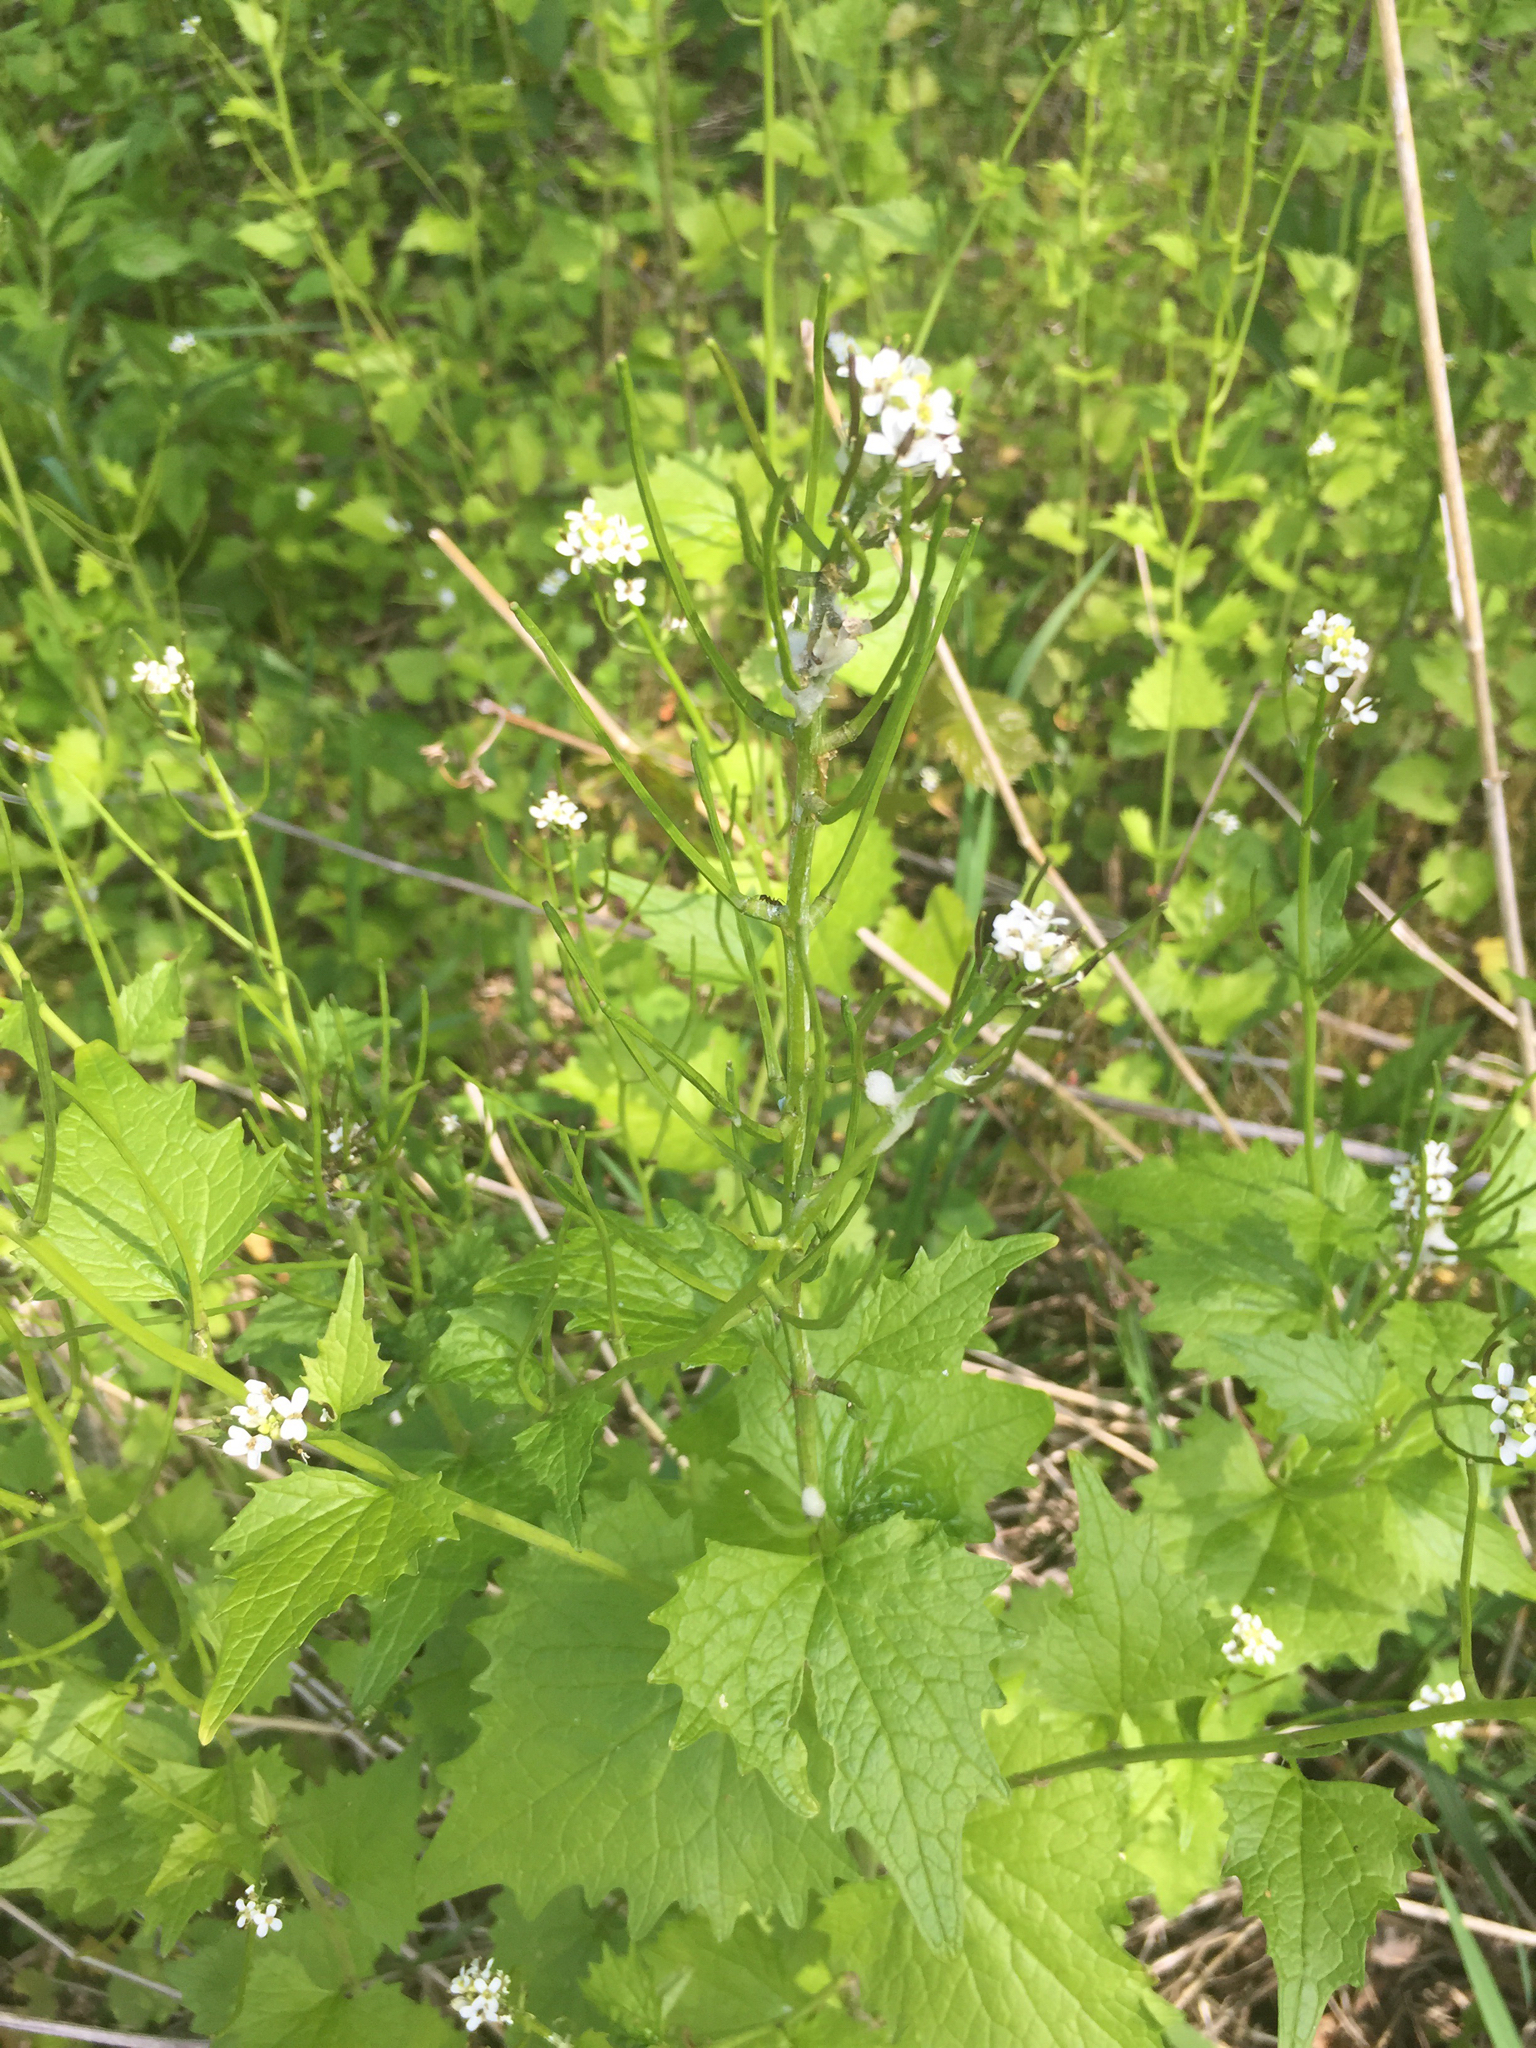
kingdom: Plantae
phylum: Tracheophyta
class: Magnoliopsida
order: Brassicales
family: Brassicaceae
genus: Alliaria
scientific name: Alliaria petiolata
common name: Garlic mustard
